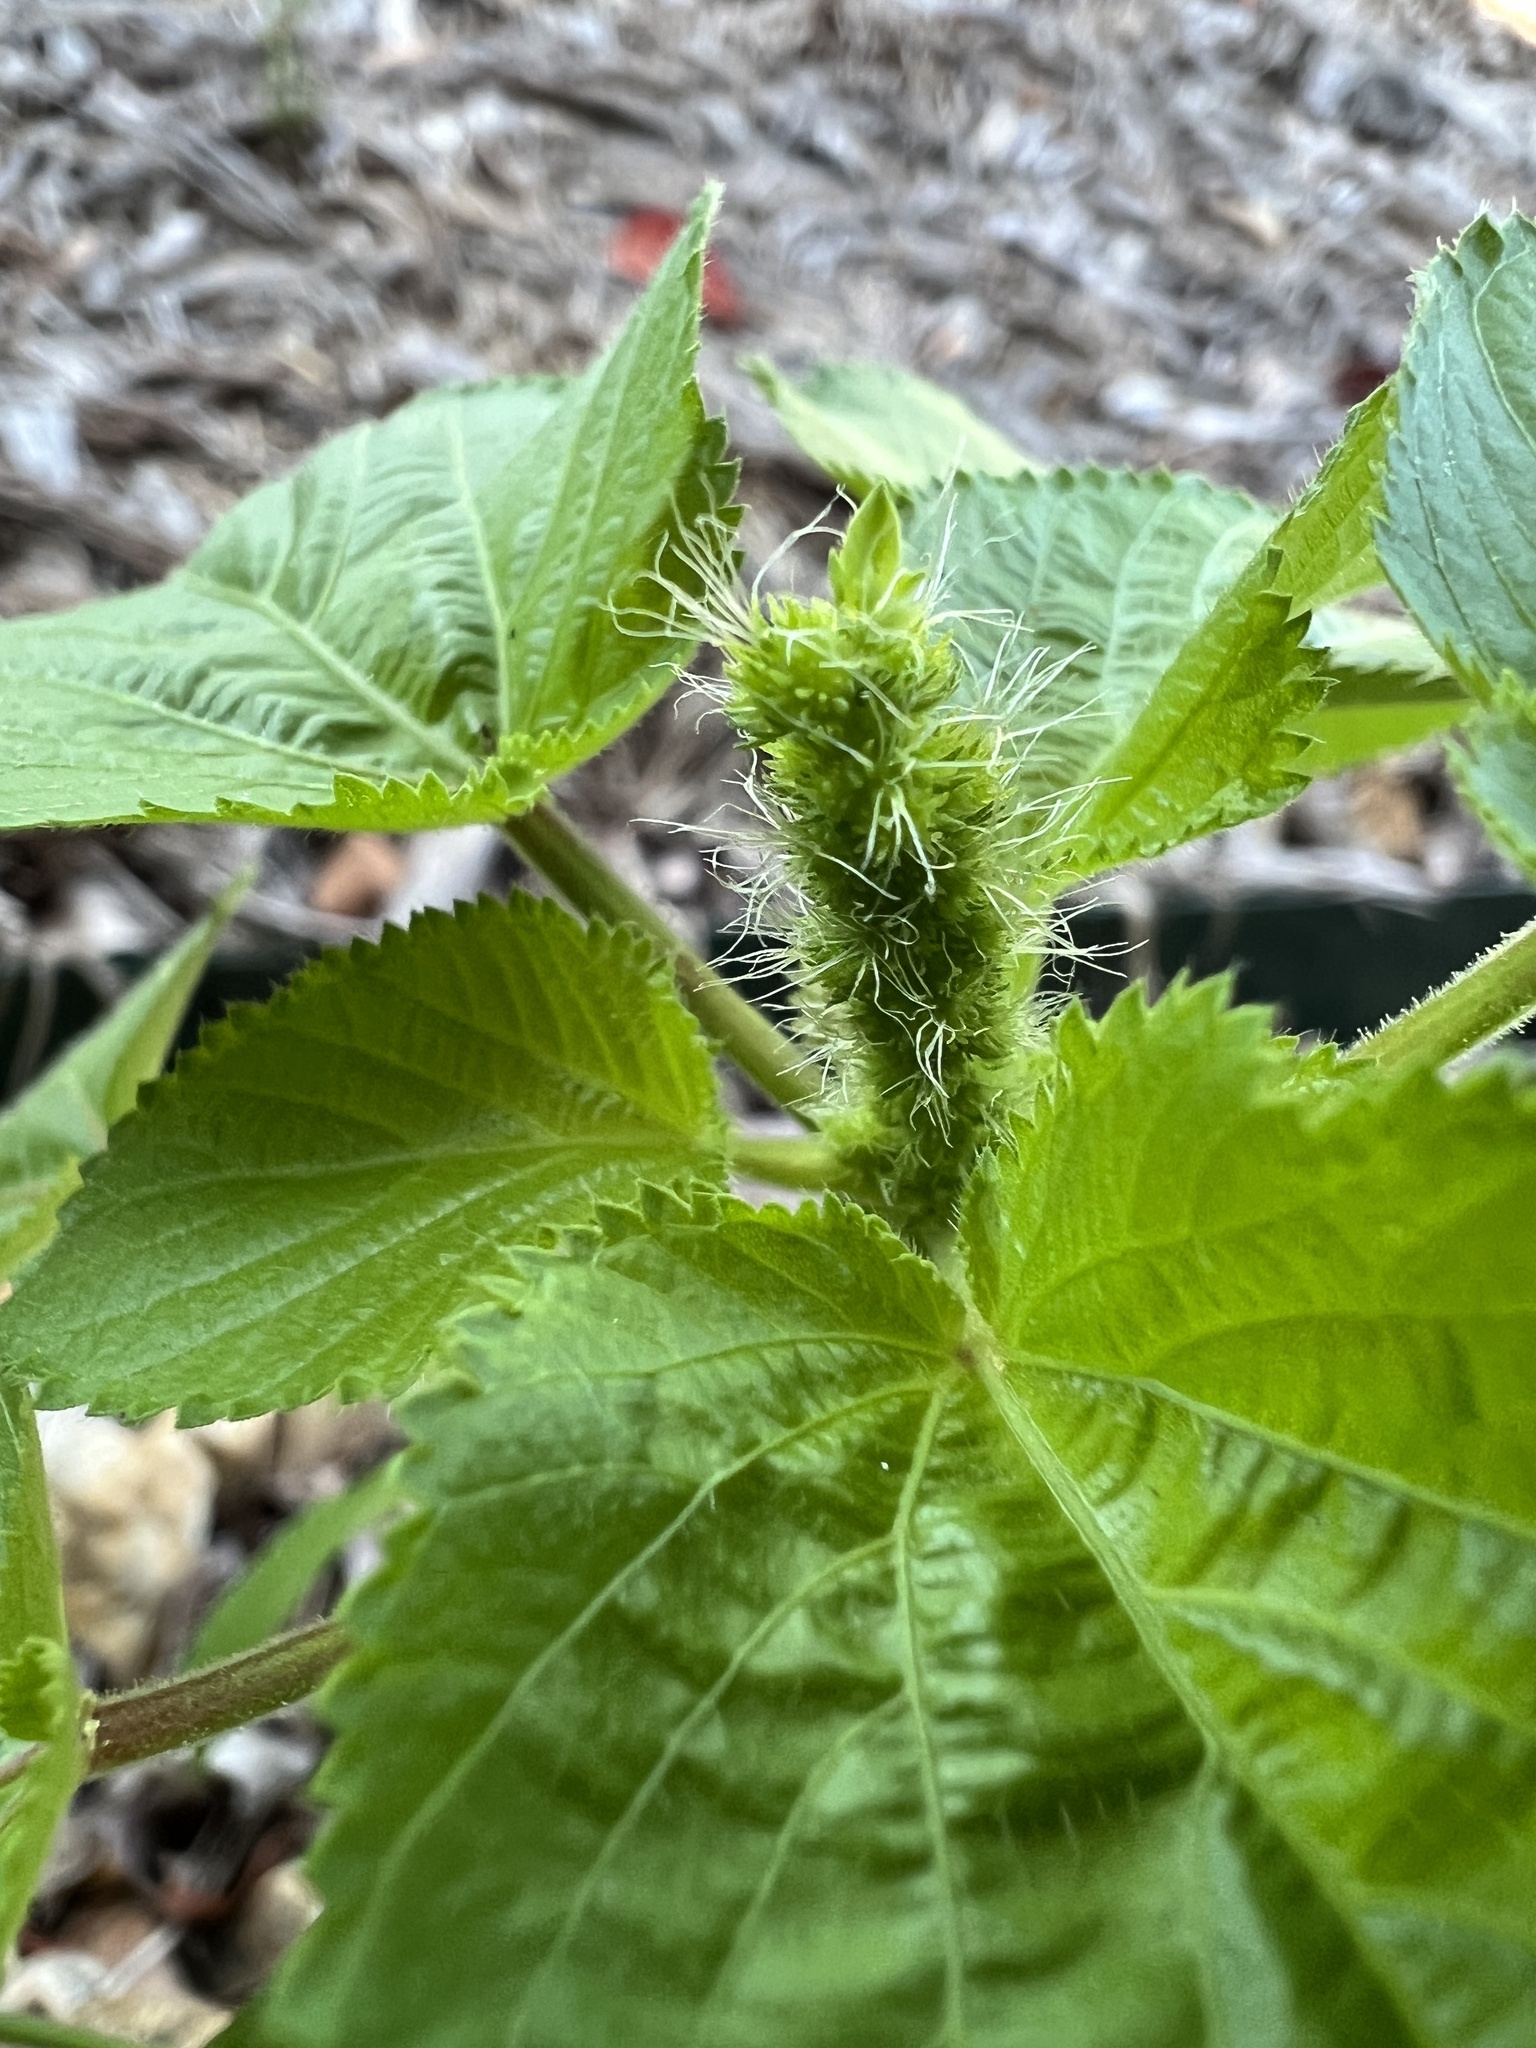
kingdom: Plantae
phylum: Tracheophyta
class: Magnoliopsida
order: Malpighiales
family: Euphorbiaceae
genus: Acalypha
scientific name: Acalypha ostryifolia
